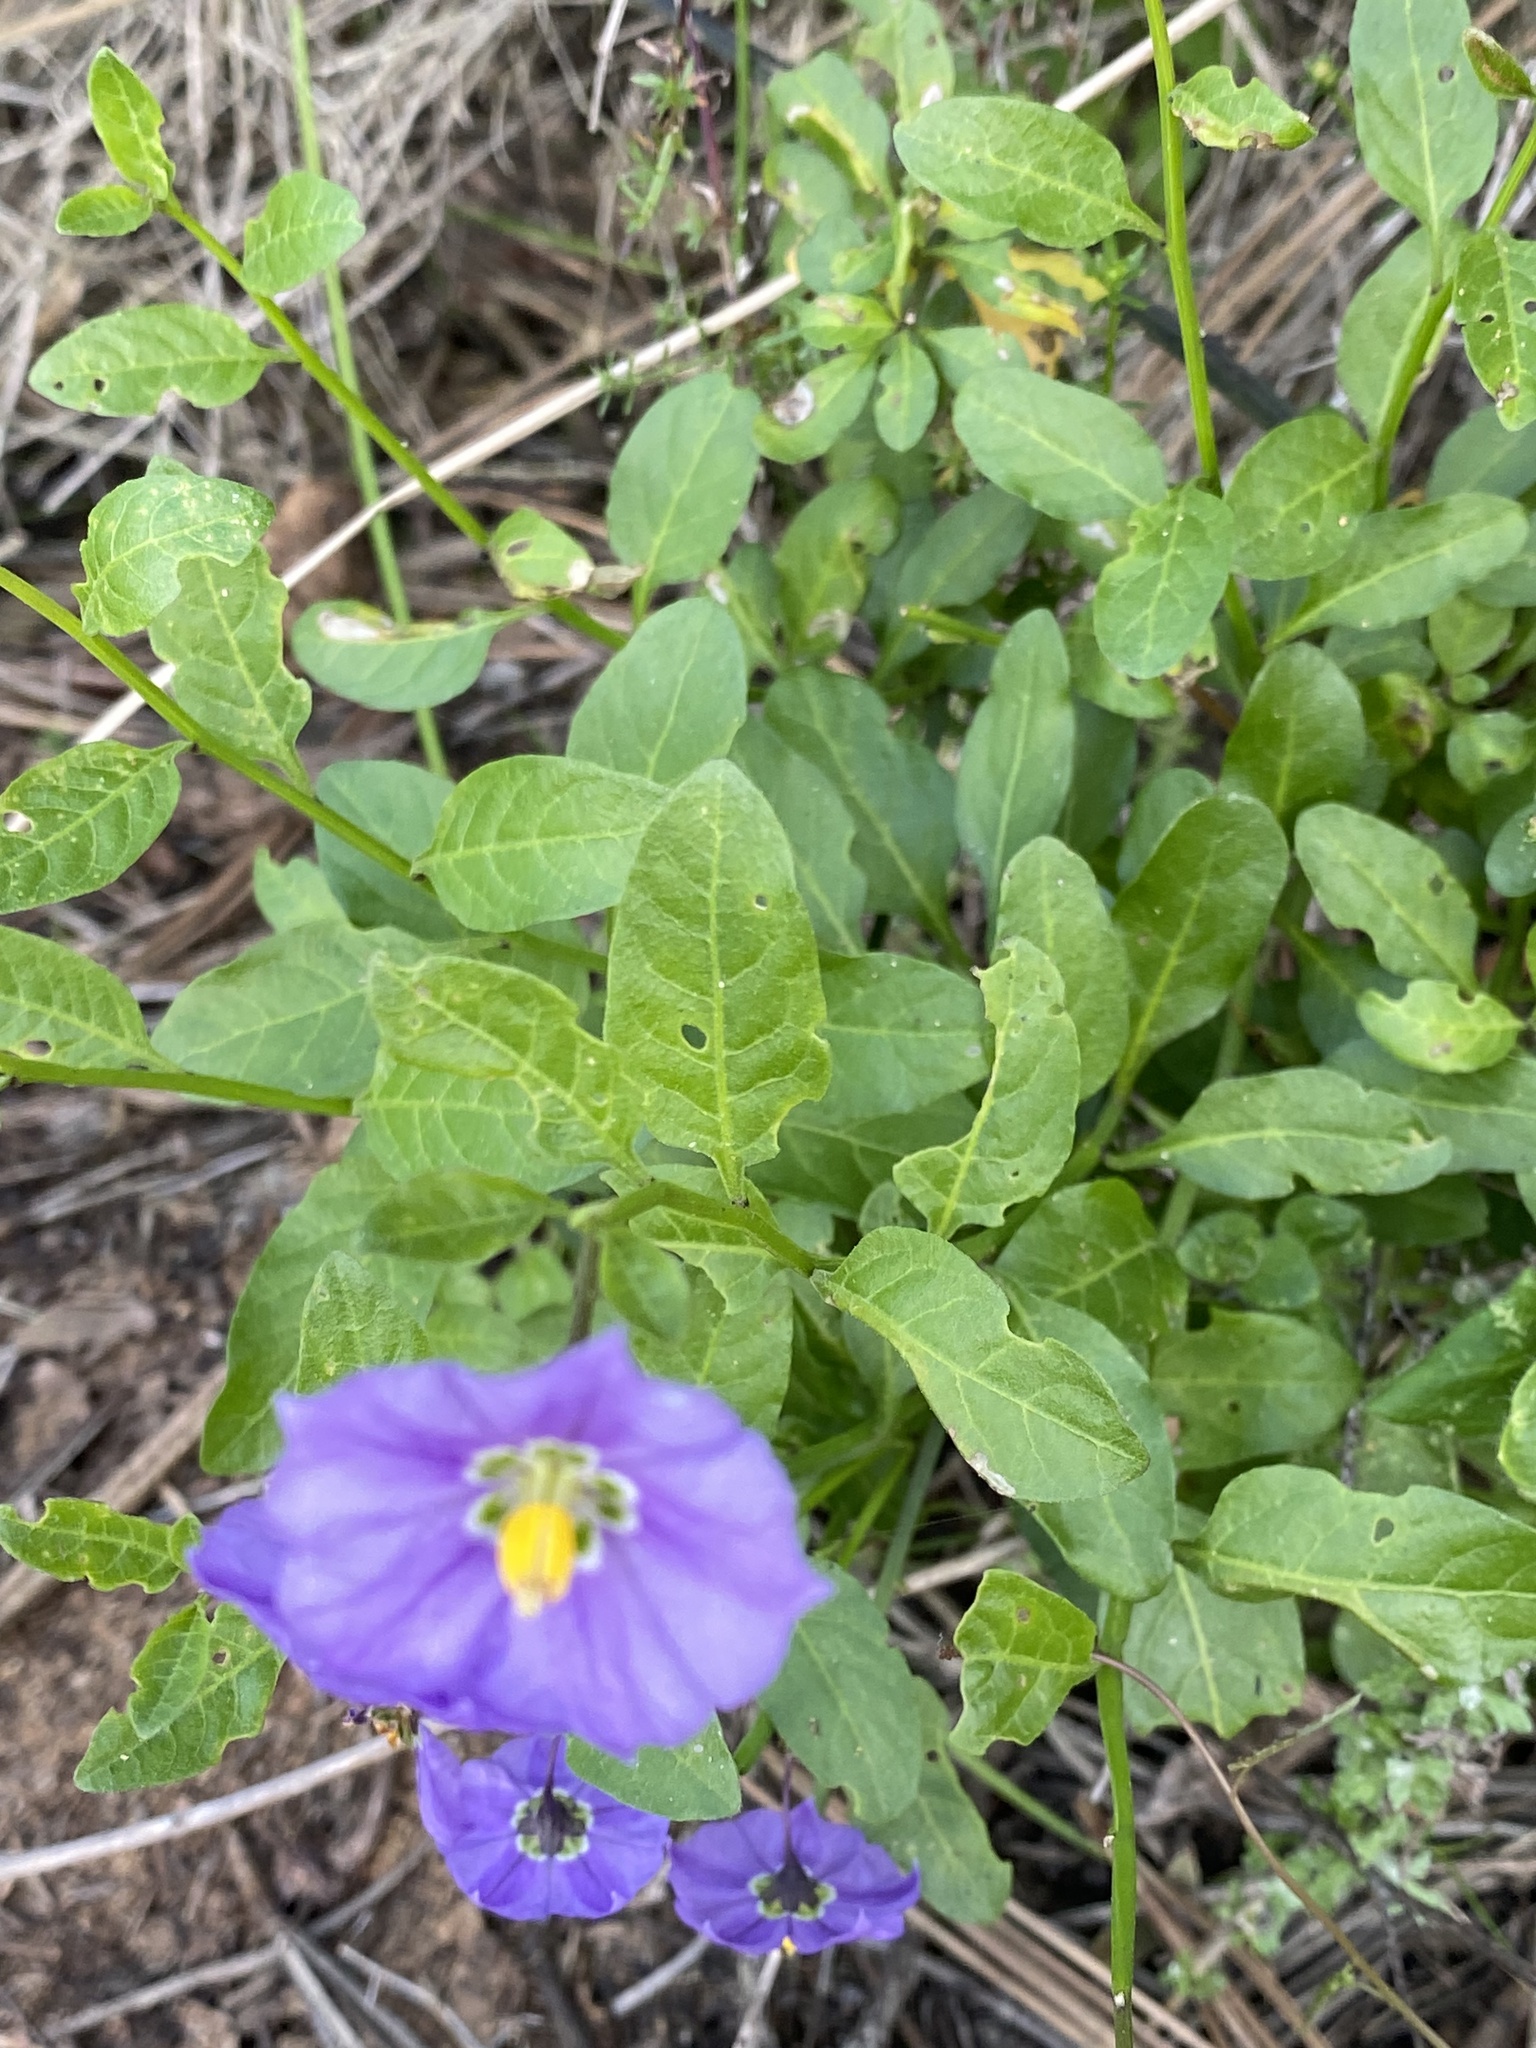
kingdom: Plantae
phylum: Tracheophyta
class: Magnoliopsida
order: Solanales
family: Solanaceae
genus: Solanum
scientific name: Solanum umbelliferum
